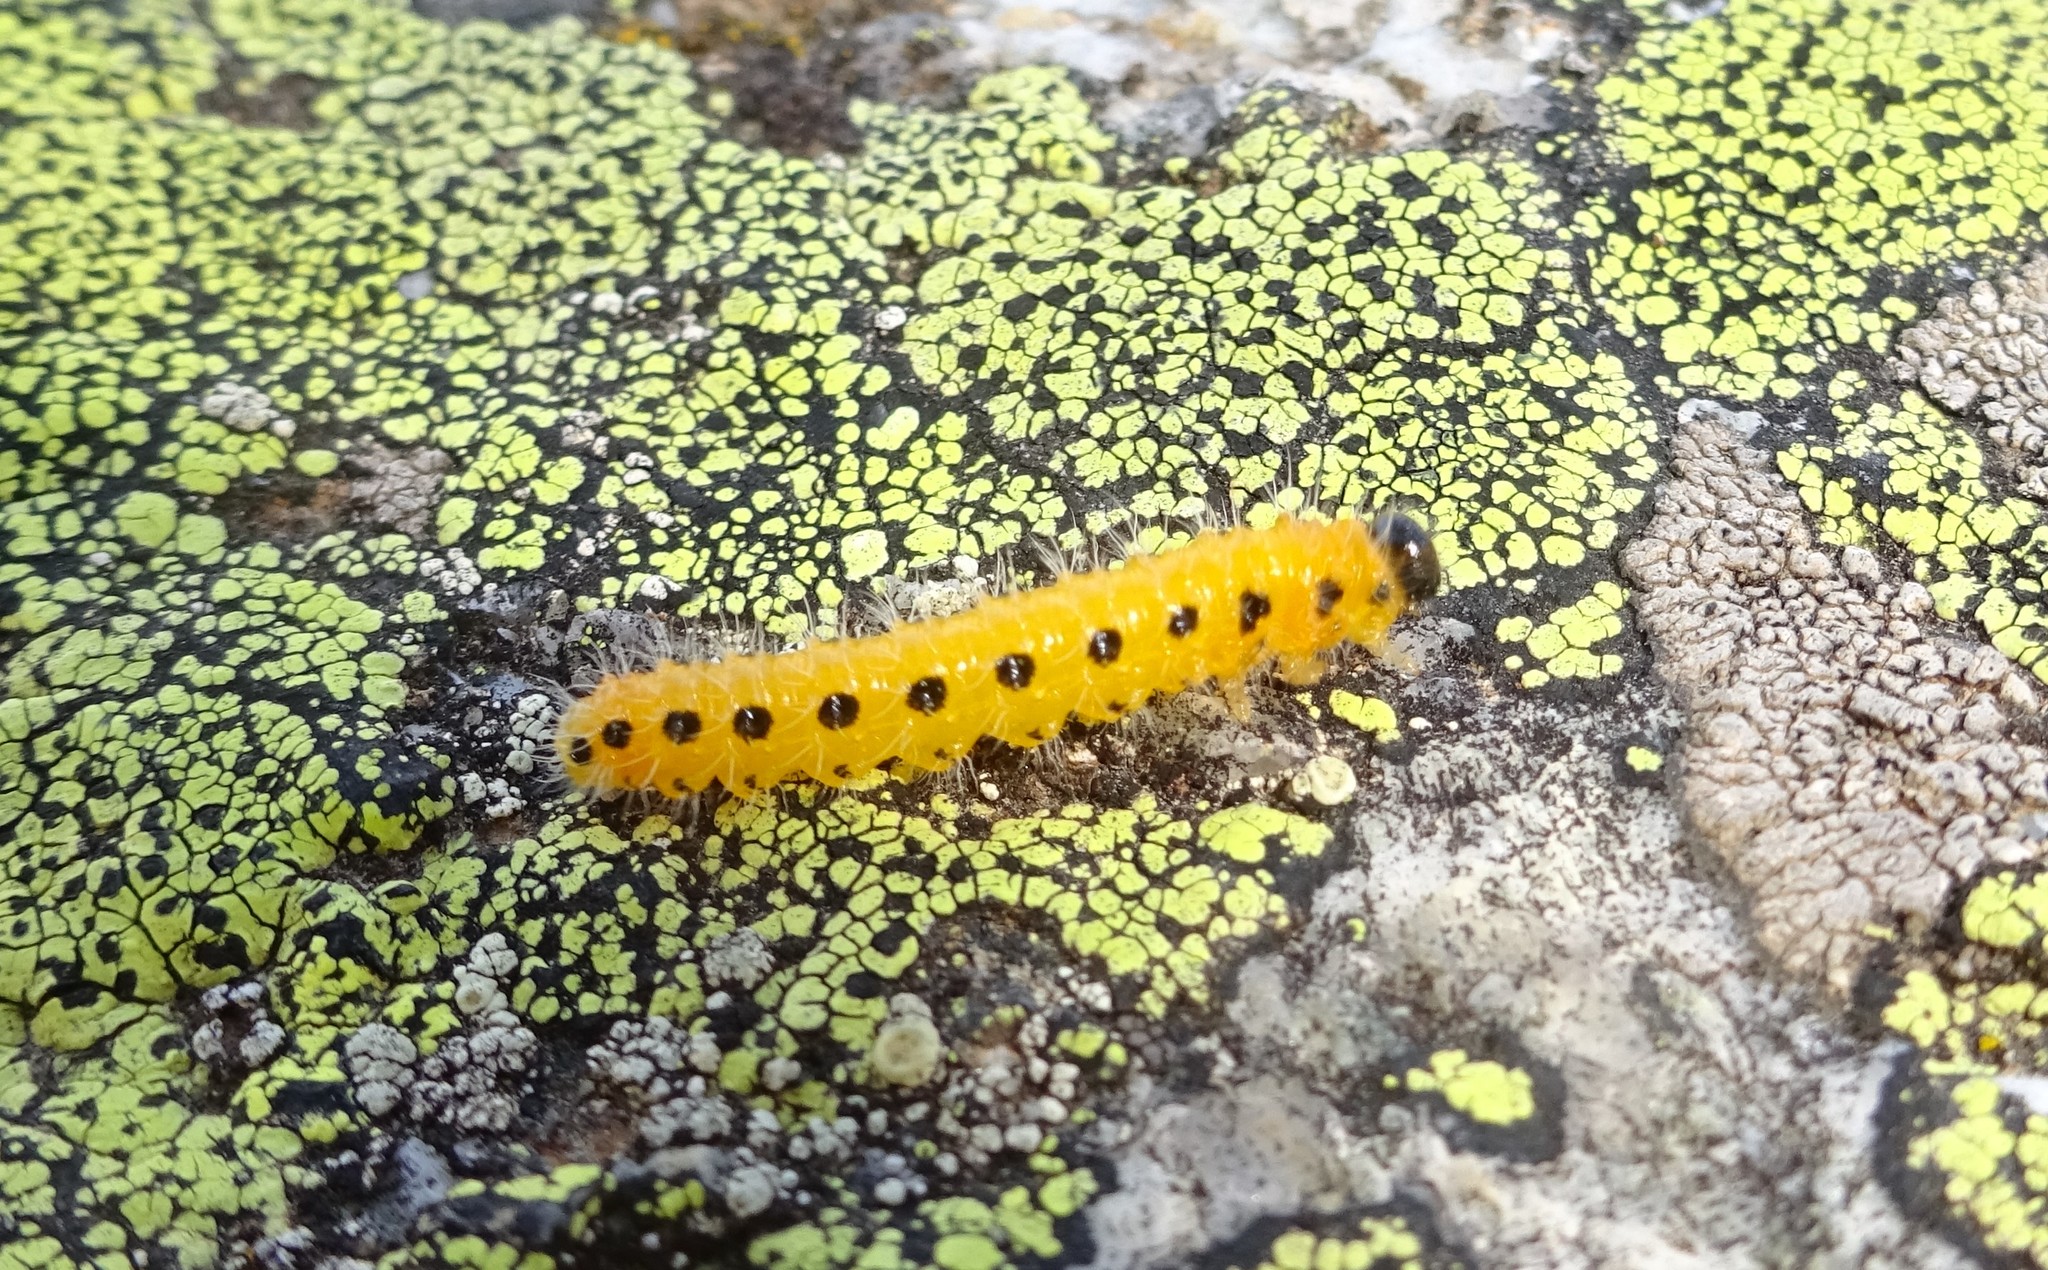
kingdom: Animalia
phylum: Arthropoda
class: Insecta
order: Hymenoptera
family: Tenthredinidae
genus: Cladius
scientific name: Cladius grandis
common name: Common sawfly
